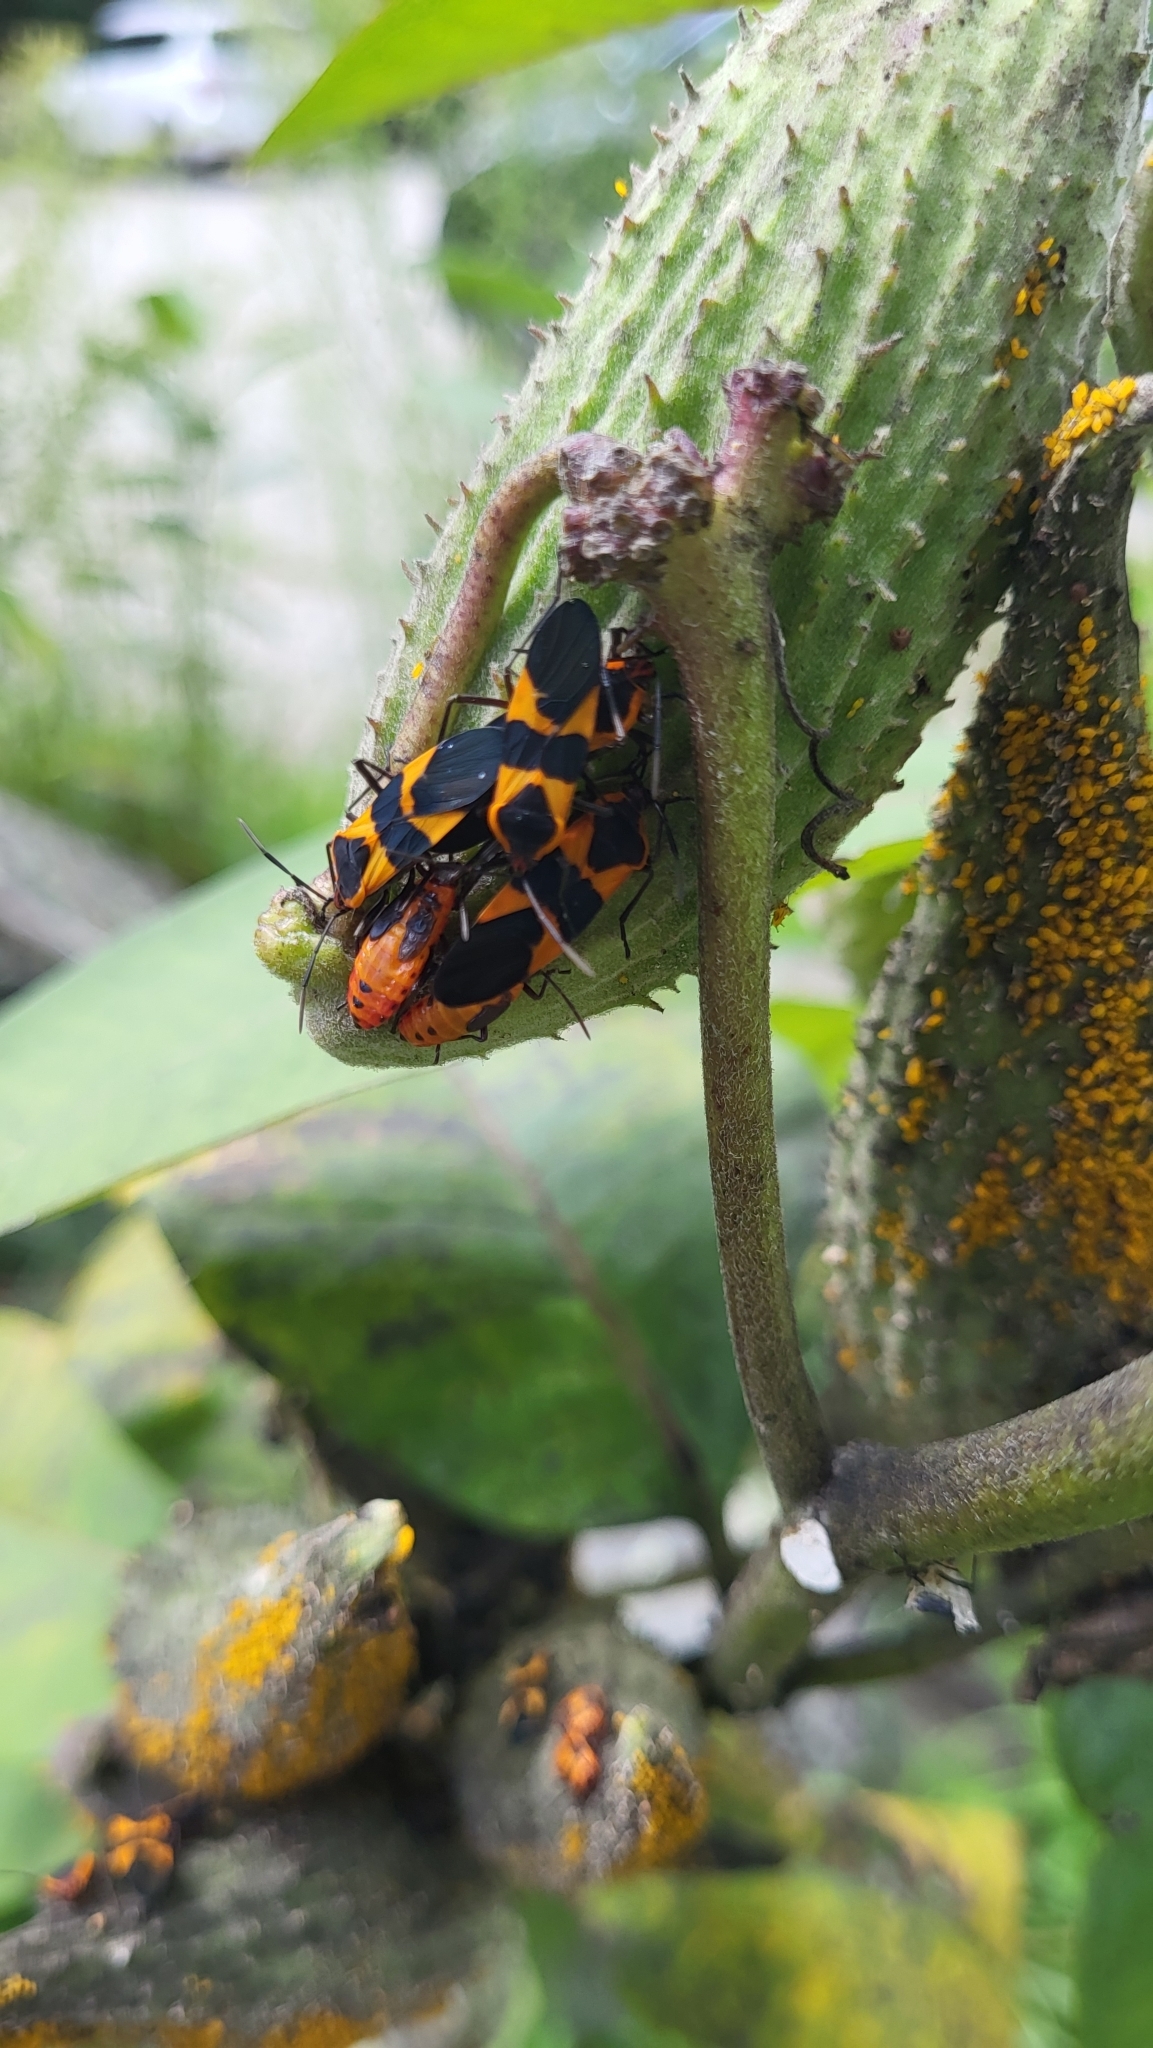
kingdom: Animalia
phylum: Arthropoda
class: Insecta
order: Hemiptera
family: Lygaeidae
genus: Oncopeltus
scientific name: Oncopeltus fasciatus
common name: Large milkweed bug
